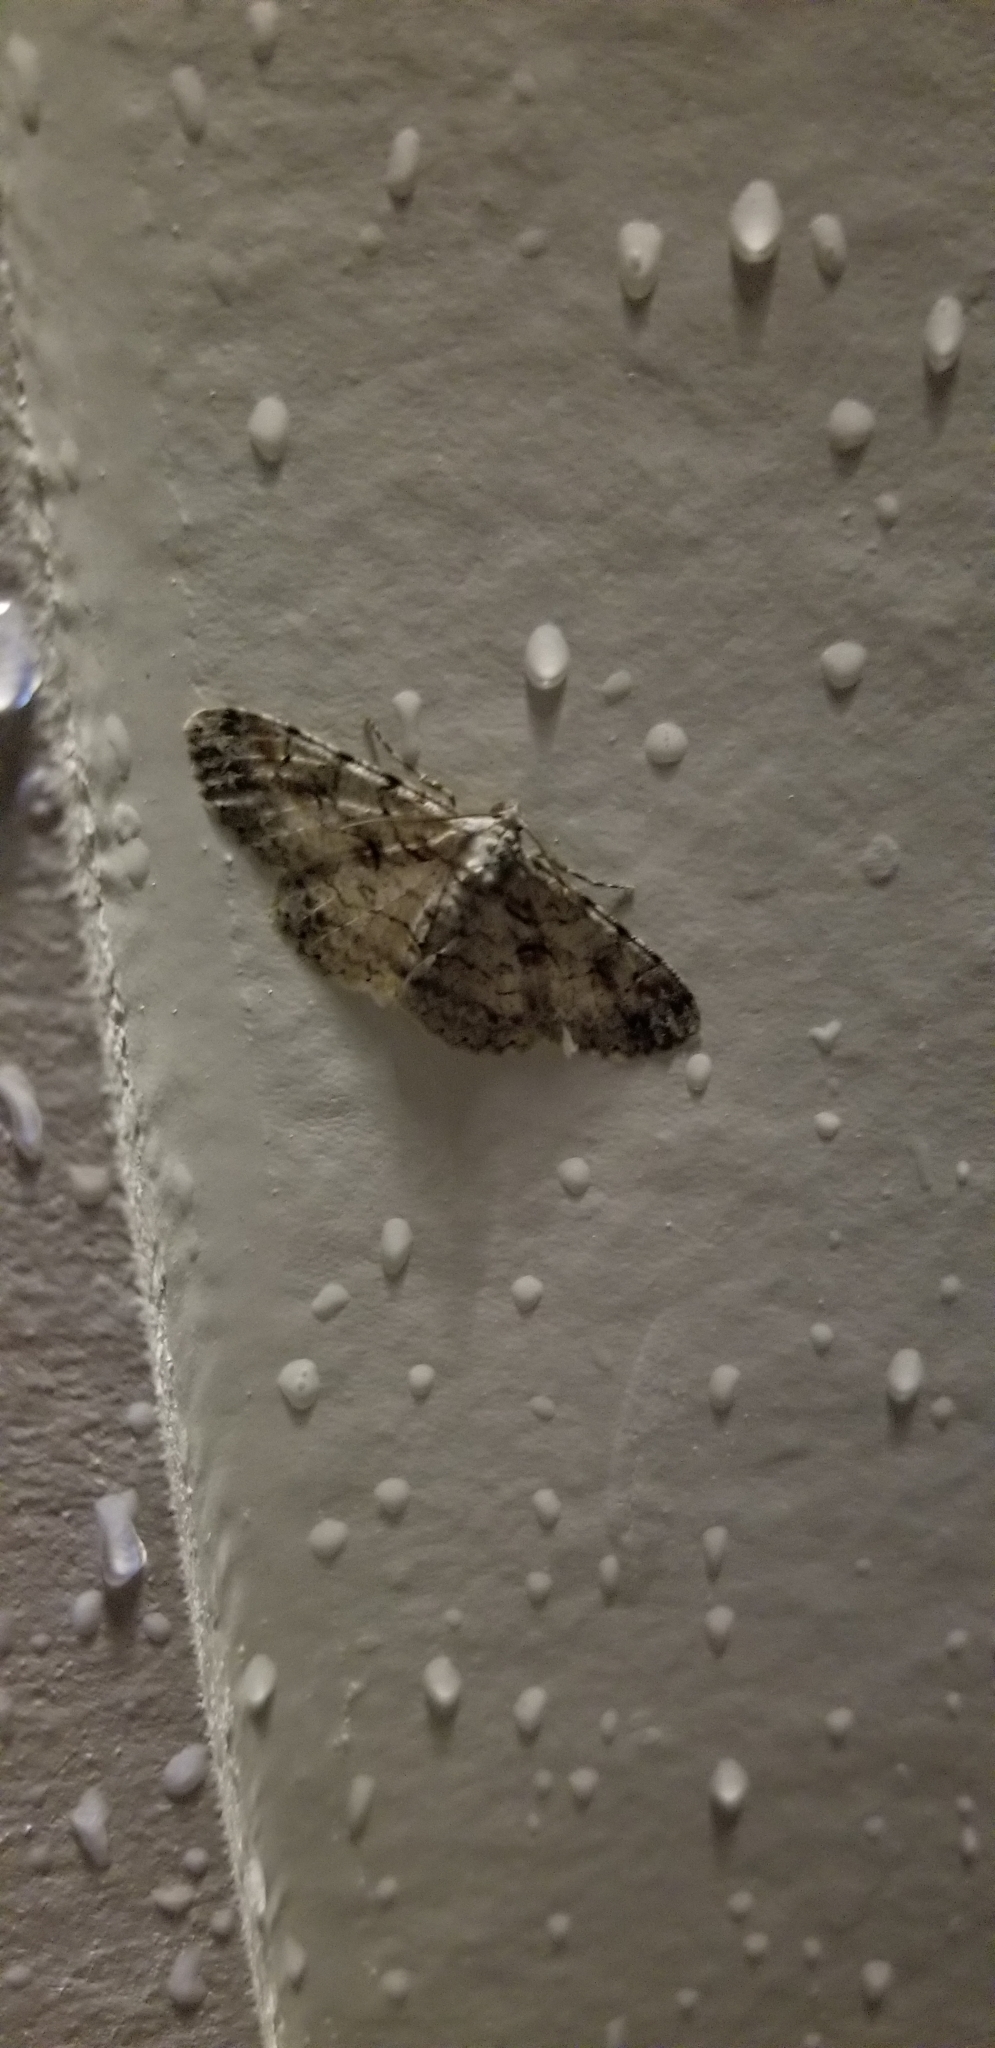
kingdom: Animalia
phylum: Arthropoda
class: Insecta
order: Lepidoptera
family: Geometridae
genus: Iridopsis
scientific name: Iridopsis defectaria
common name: Brown-shaded gray
